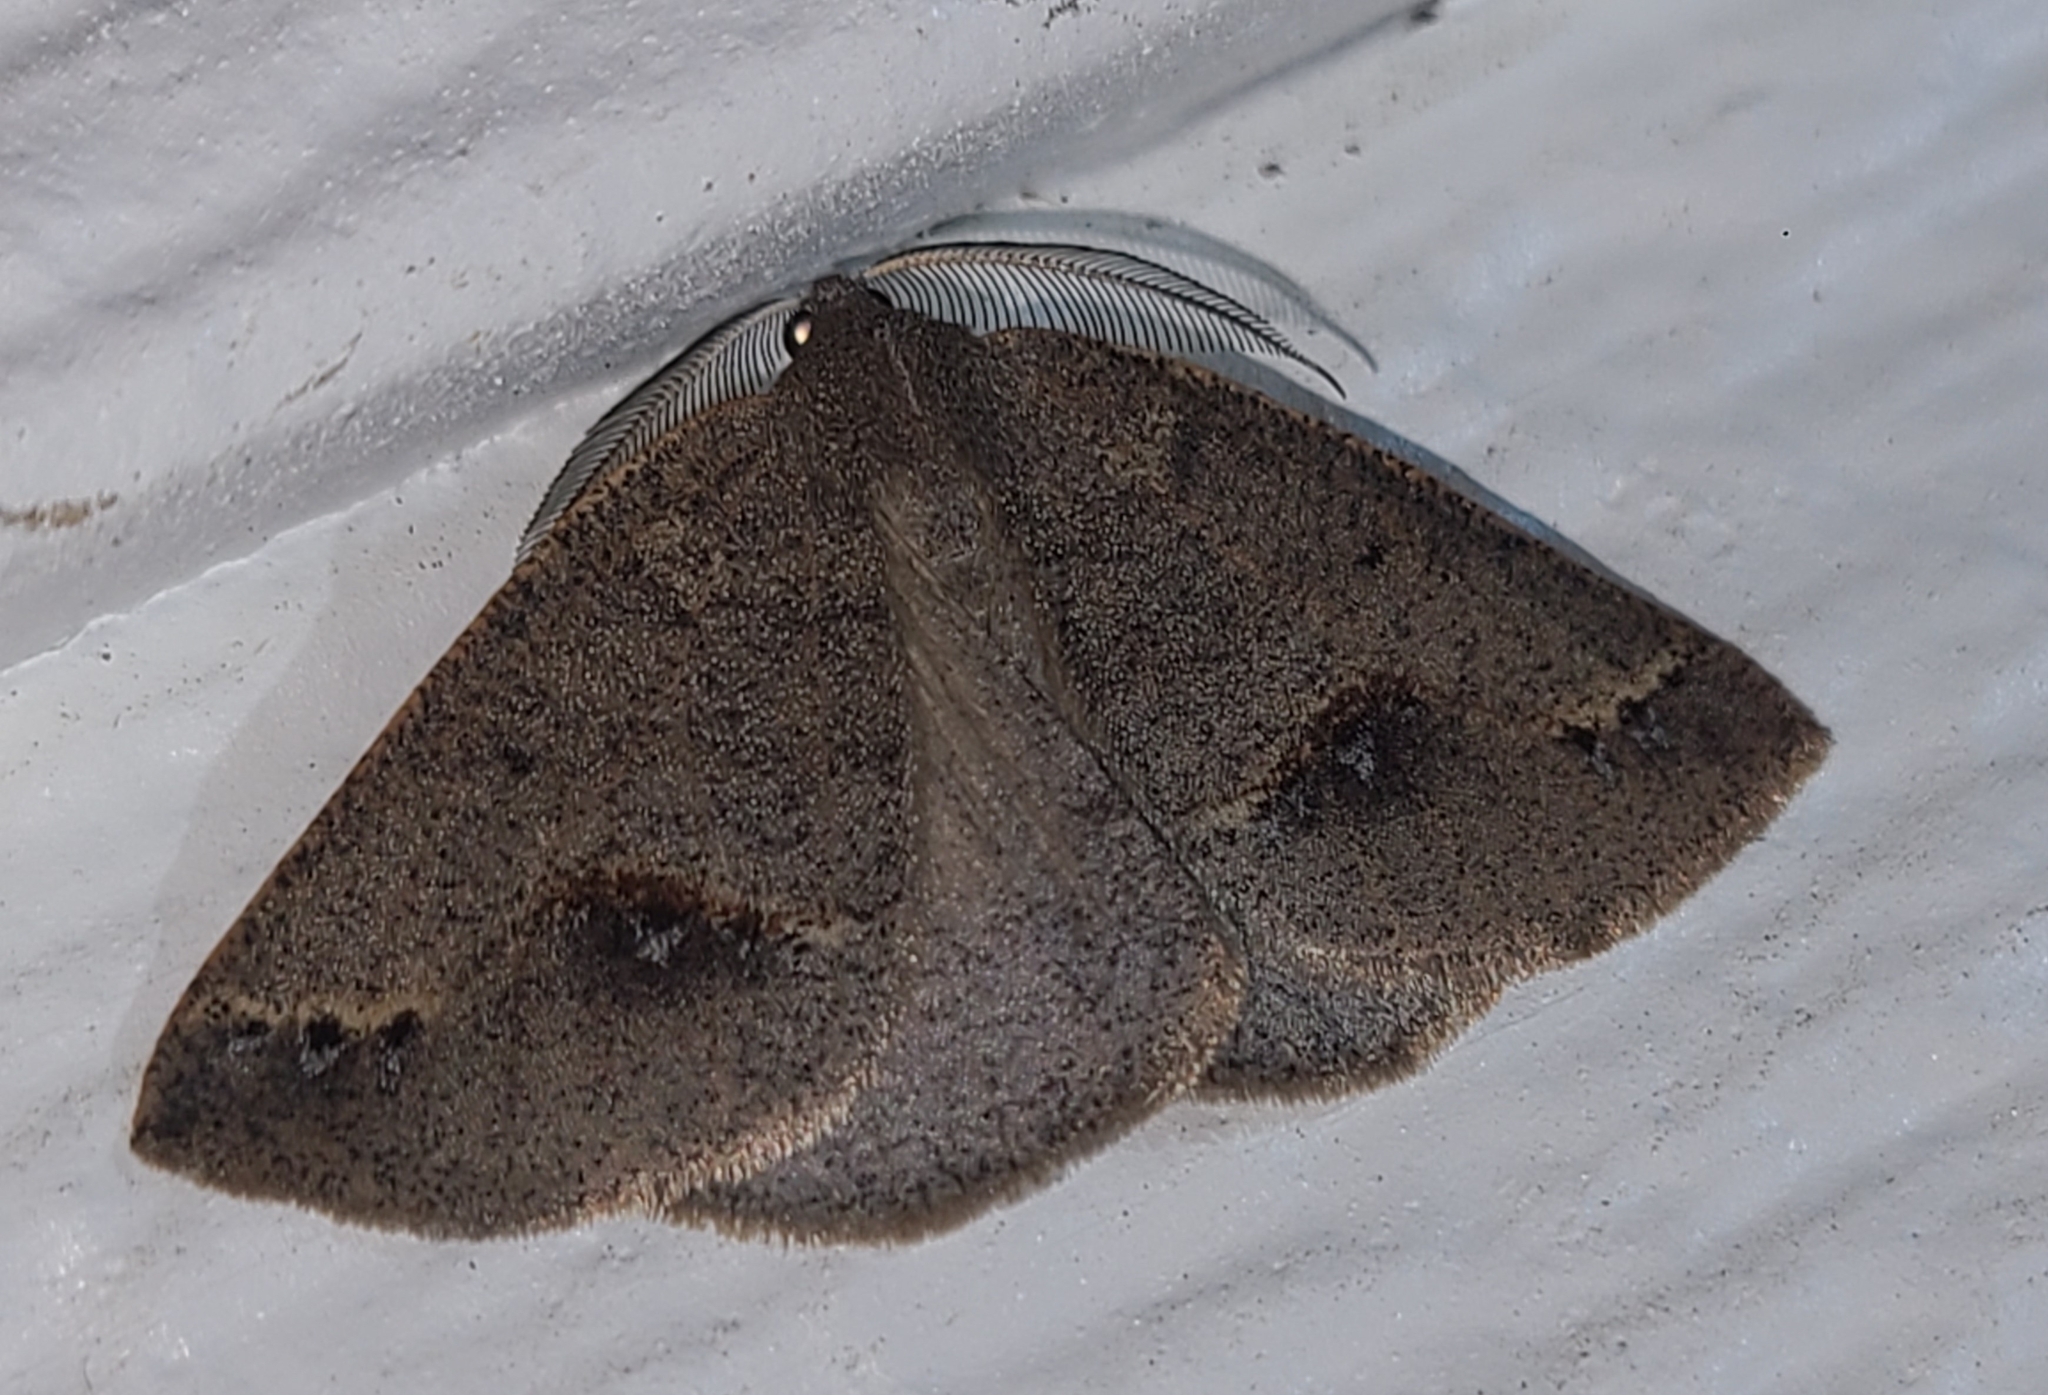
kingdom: Animalia
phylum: Arthropoda
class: Insecta
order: Lepidoptera
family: Geometridae
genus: Drepanulatrix
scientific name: Drepanulatrix unicalcararia
